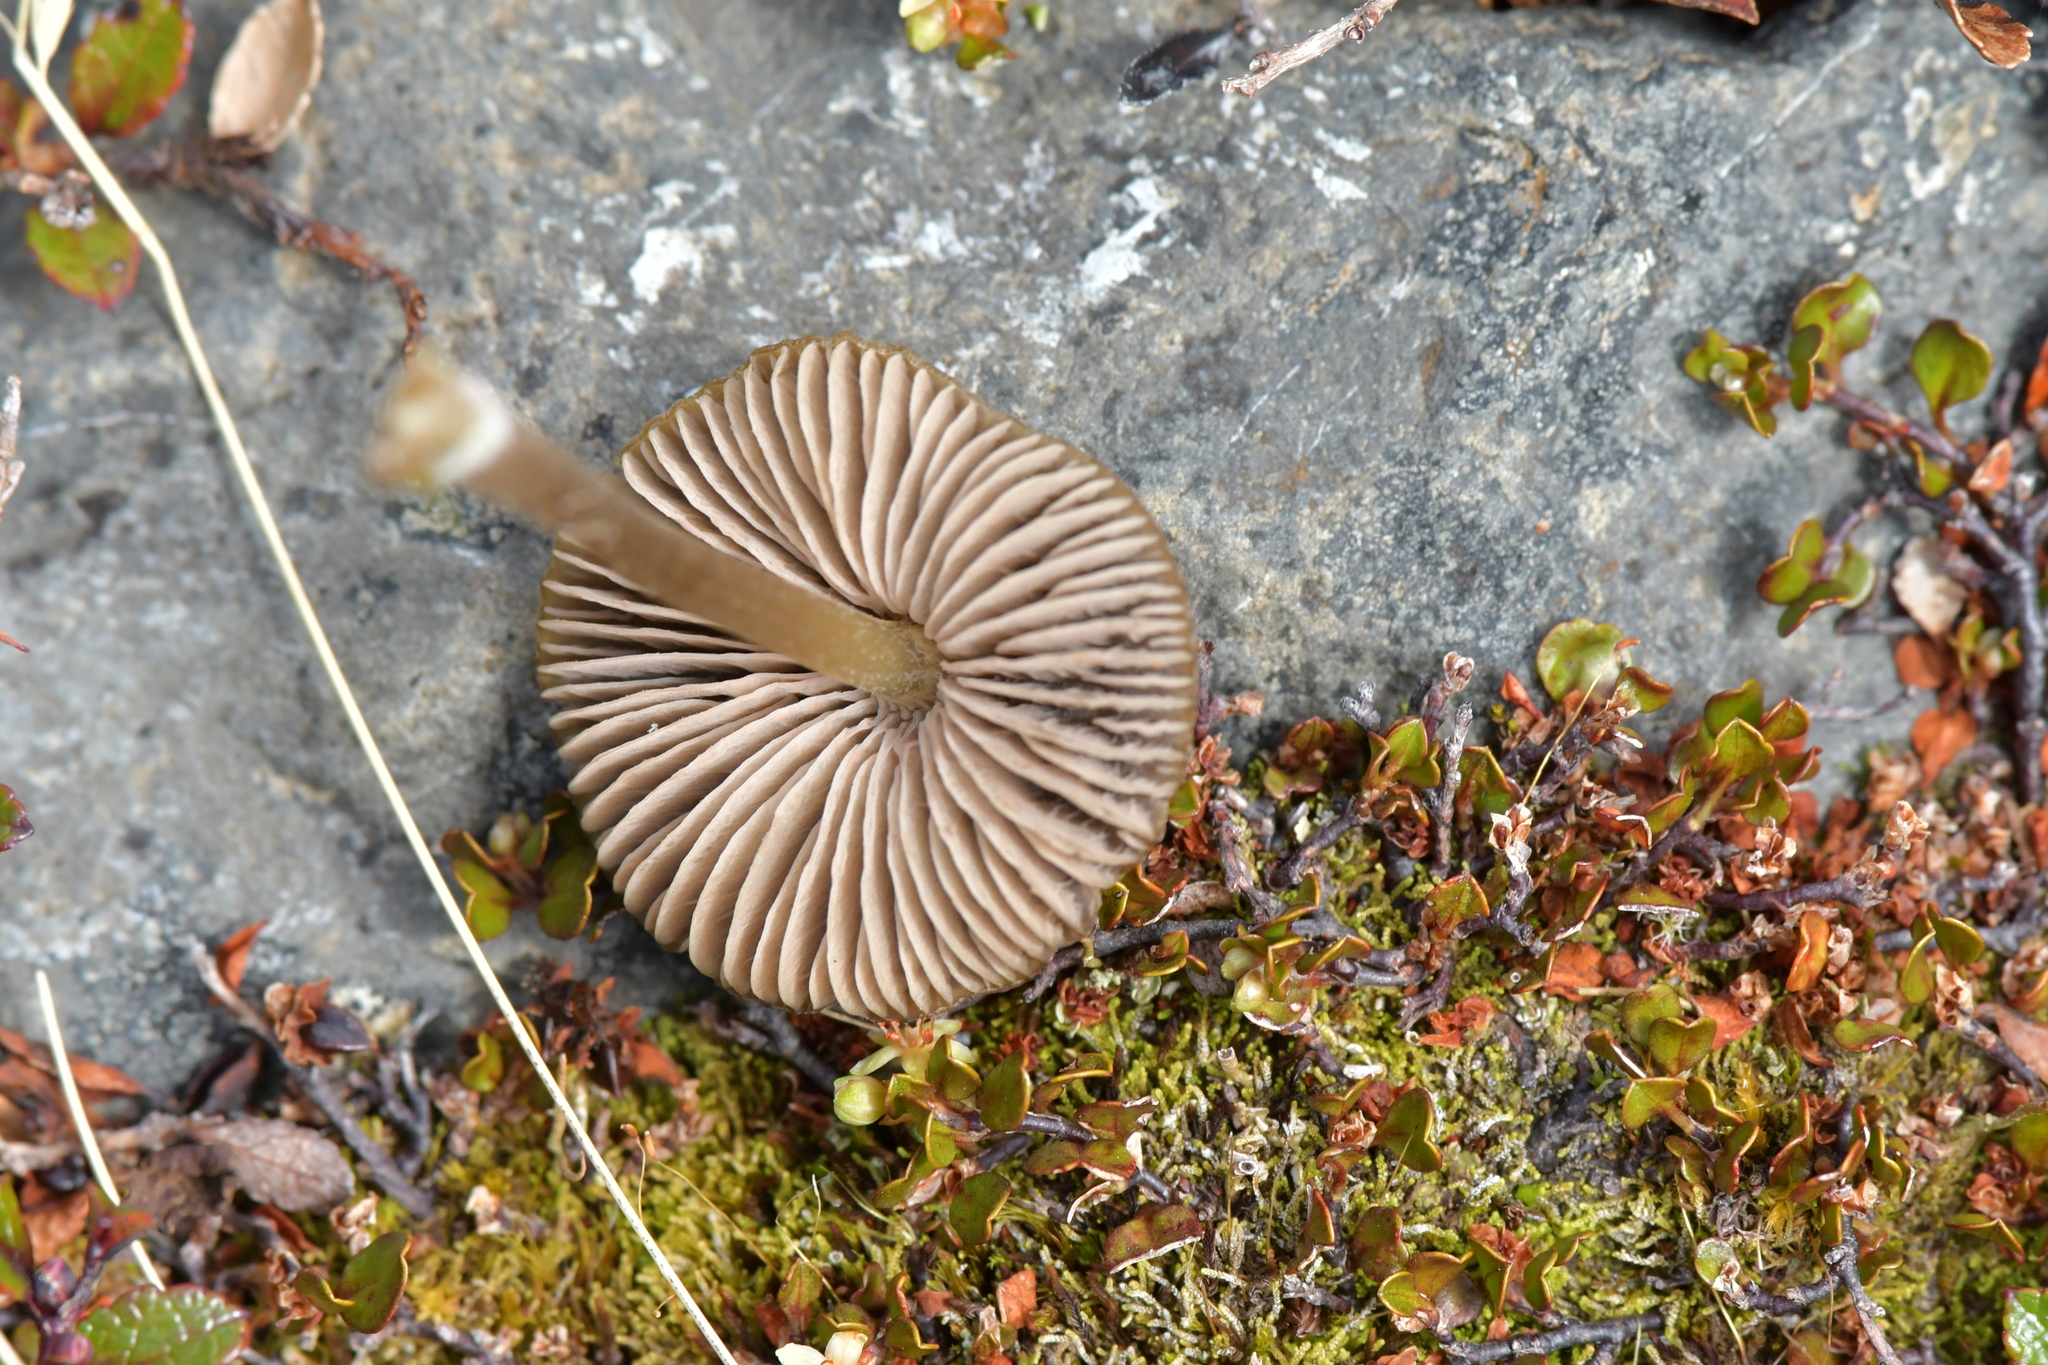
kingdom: Fungi
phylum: Basidiomycota
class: Agaricomycetes
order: Agaricales
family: Entolomataceae
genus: Entoloma
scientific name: Entoloma perzonatum
